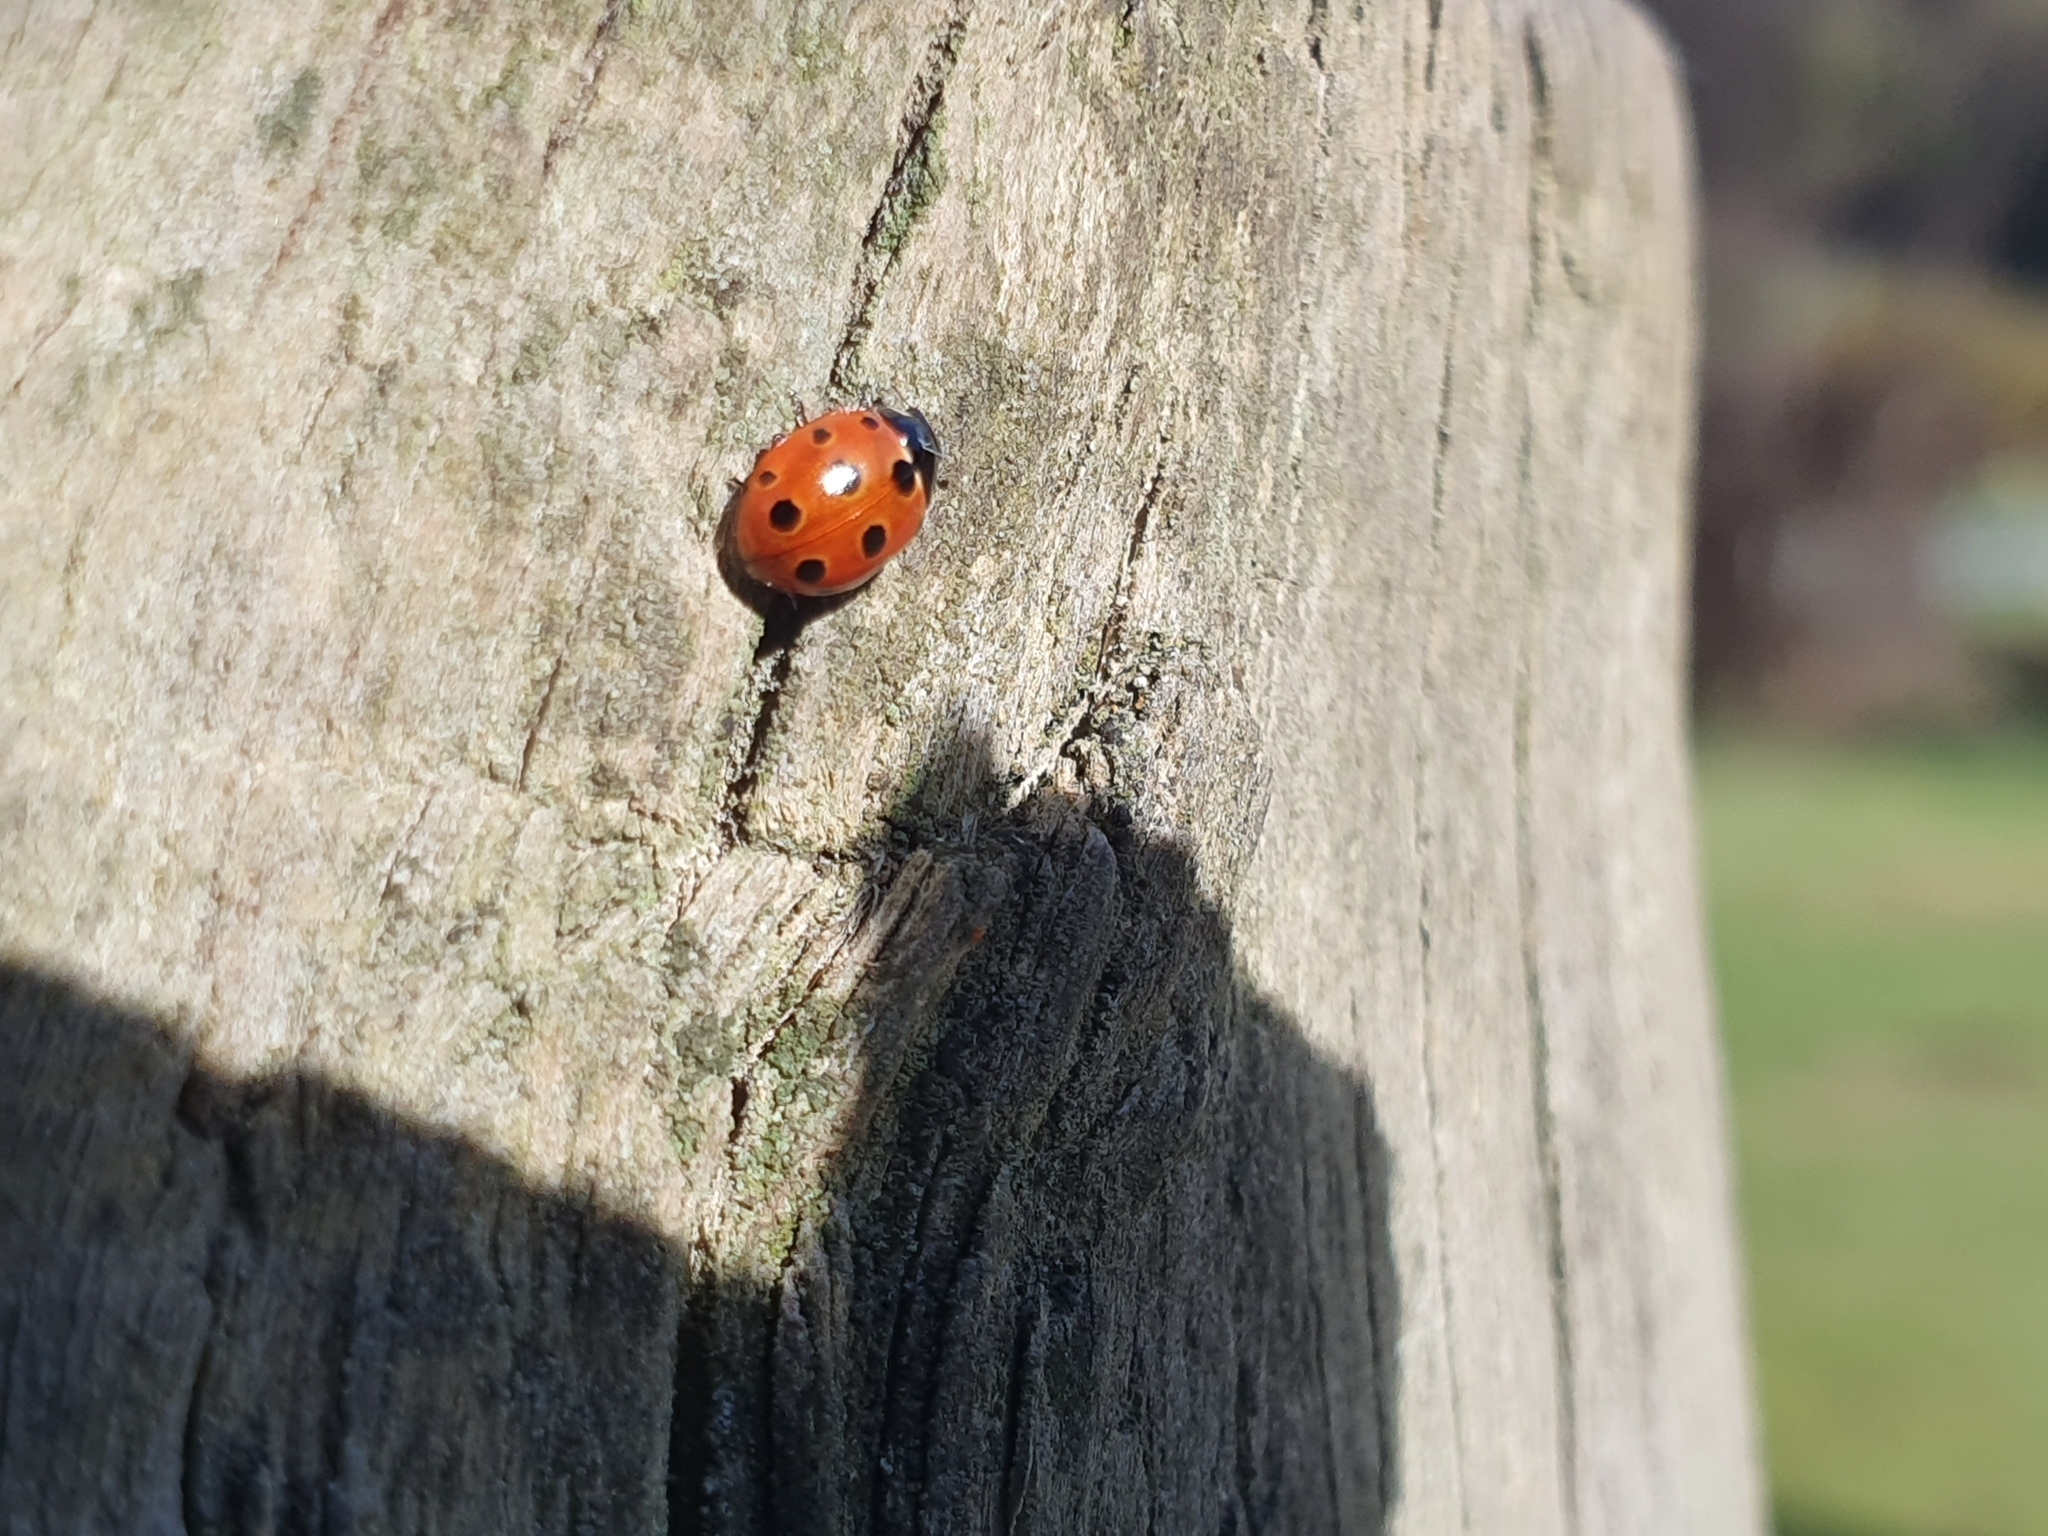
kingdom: Animalia
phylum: Arthropoda
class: Insecta
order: Coleoptera
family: Coccinellidae
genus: Coccinella
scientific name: Coccinella undecimpunctata
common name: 11-spot ladybird
